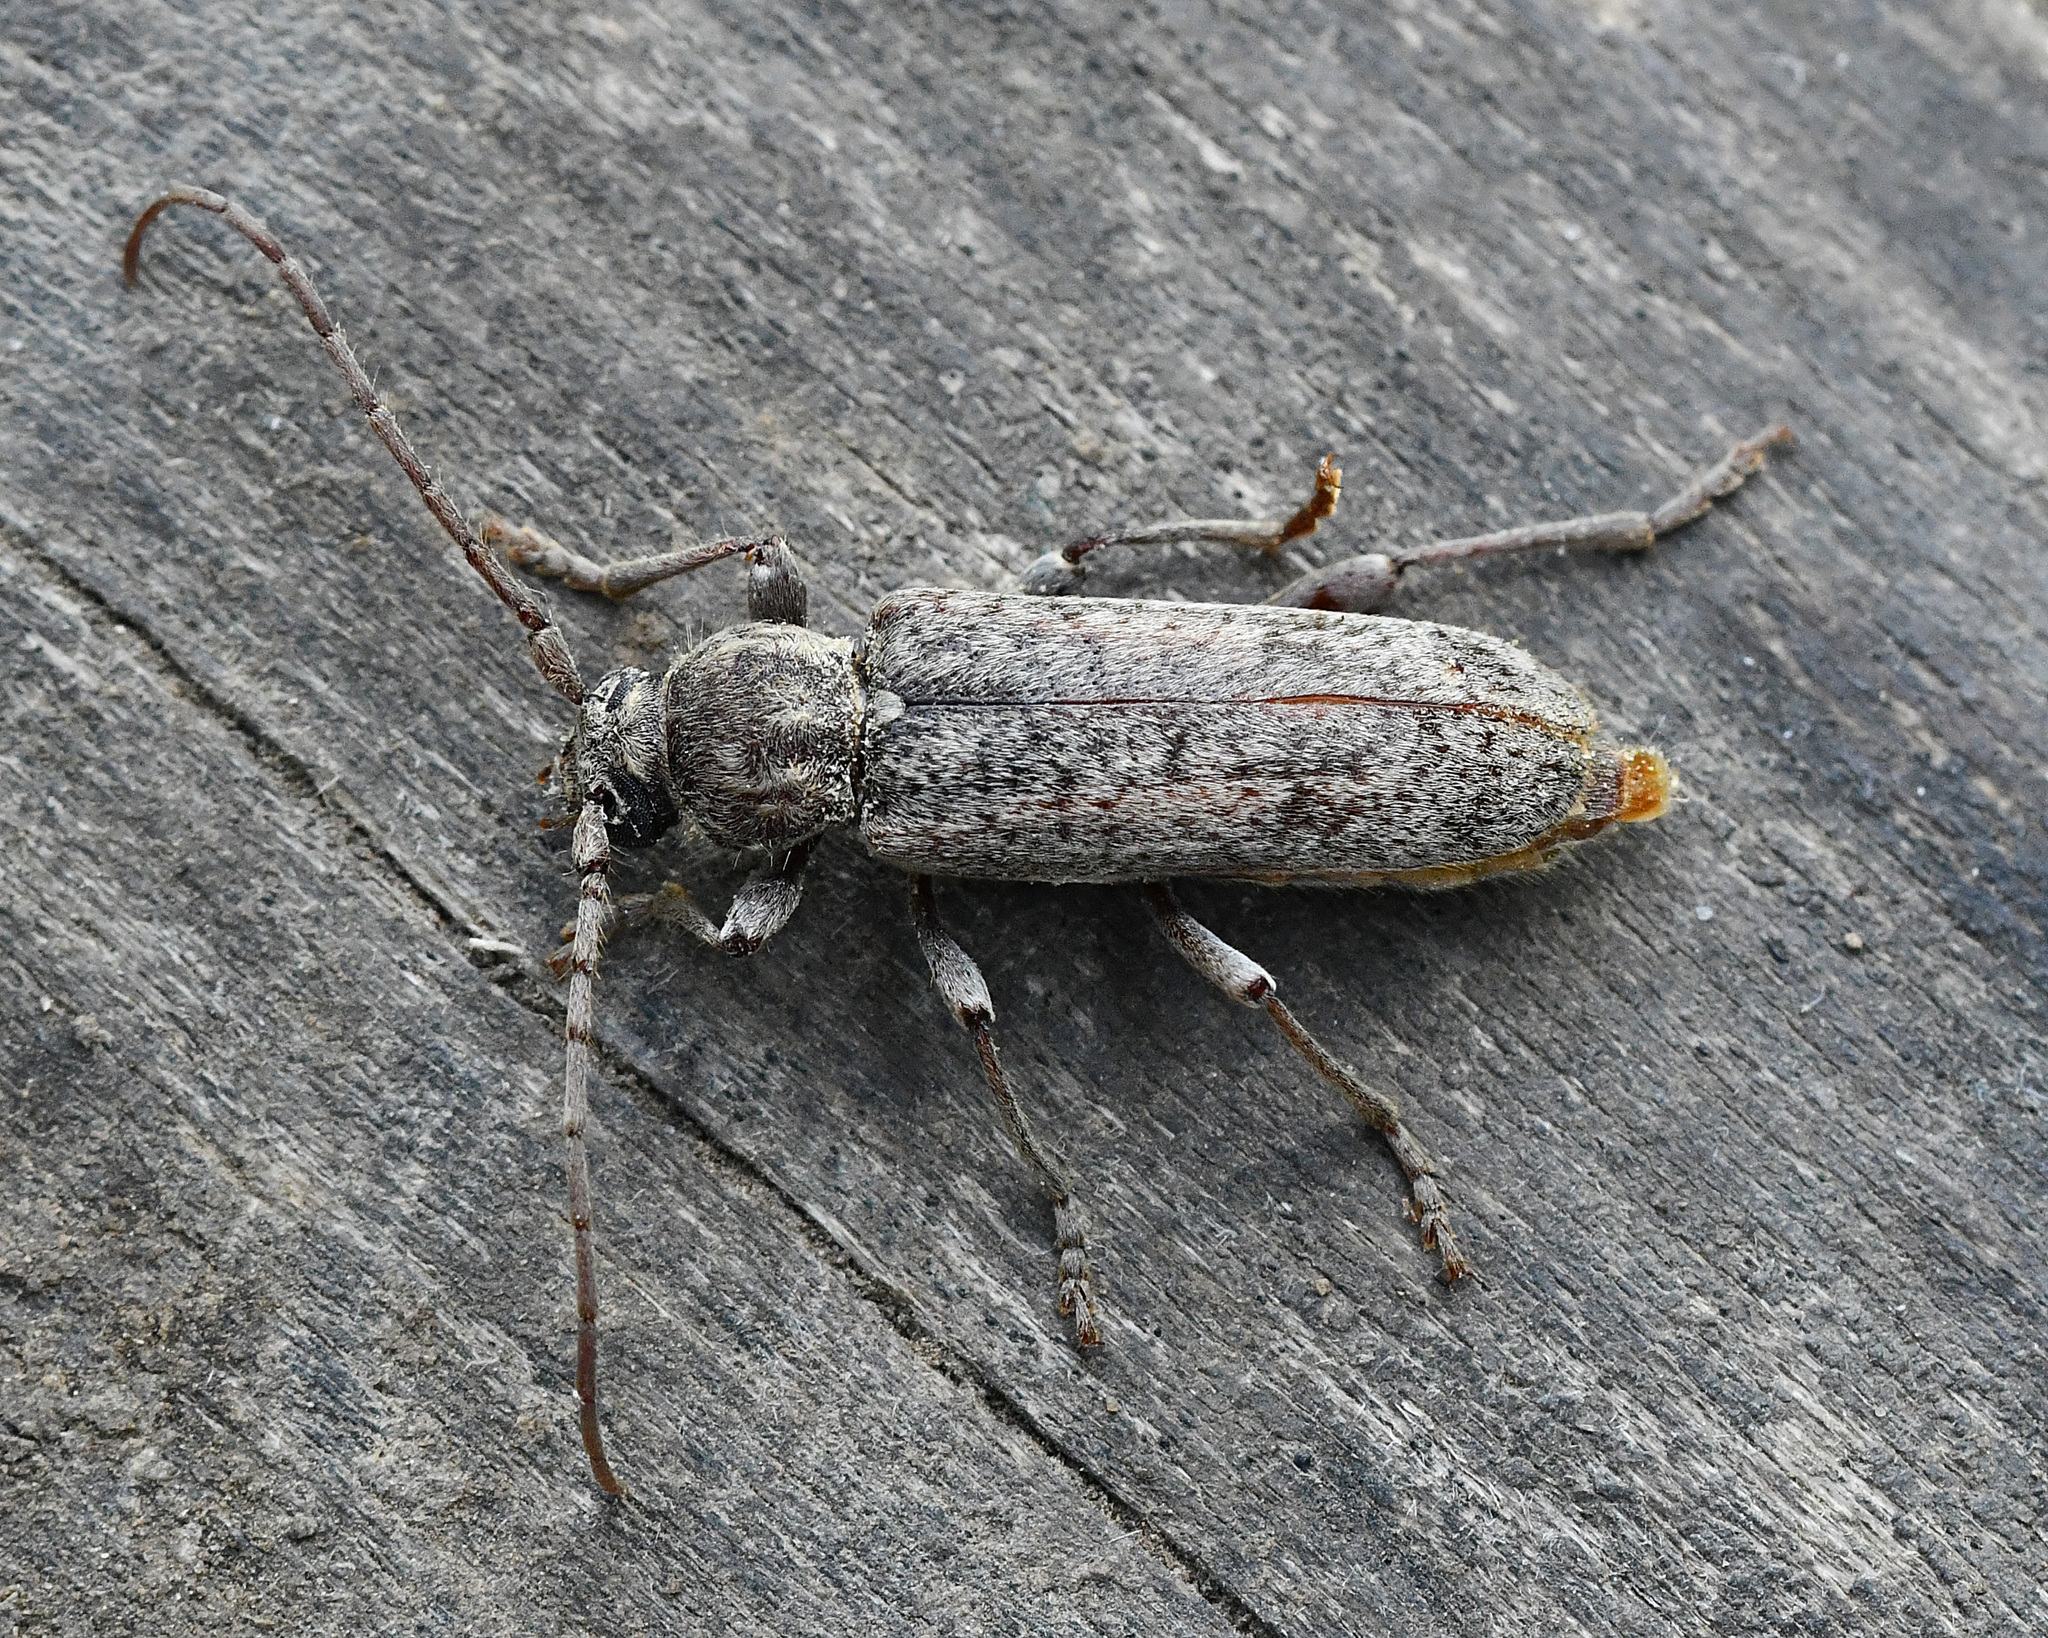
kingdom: Animalia
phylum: Arthropoda
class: Insecta
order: Coleoptera
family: Cerambycidae
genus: Trichoferus
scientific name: Trichoferus griseus
